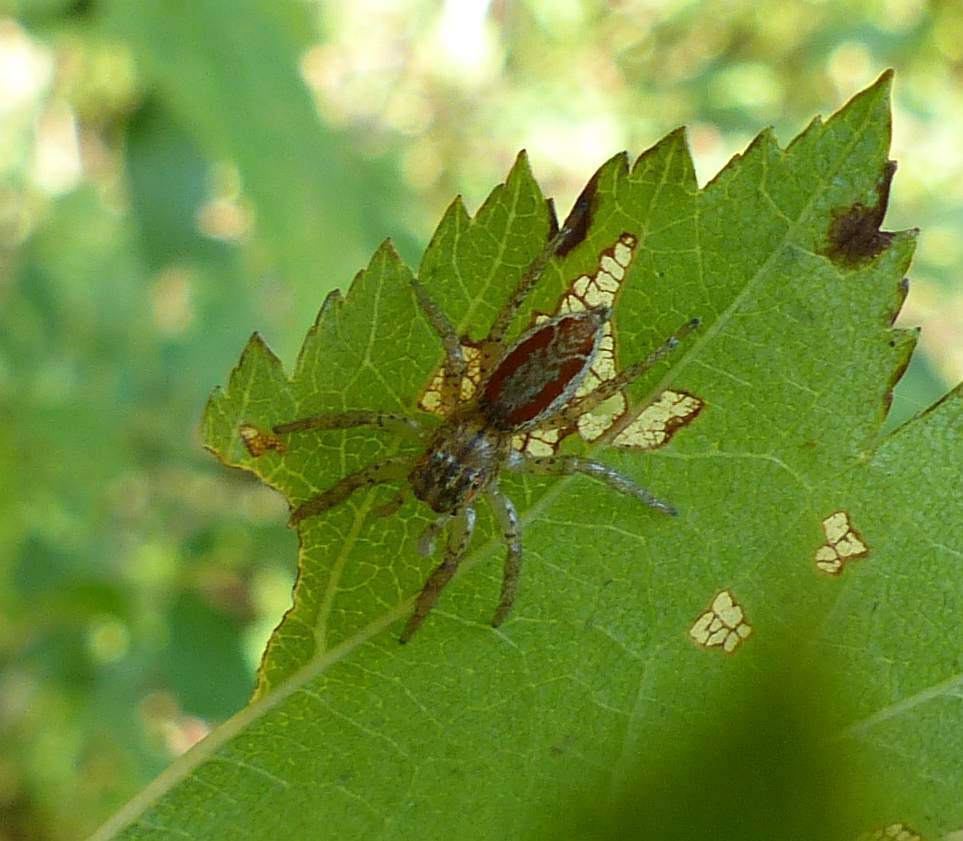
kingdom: Animalia
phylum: Arthropoda
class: Arachnida
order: Araneae
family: Salticidae
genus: Maevia
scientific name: Maevia inclemens
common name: Dimorphic jumper
